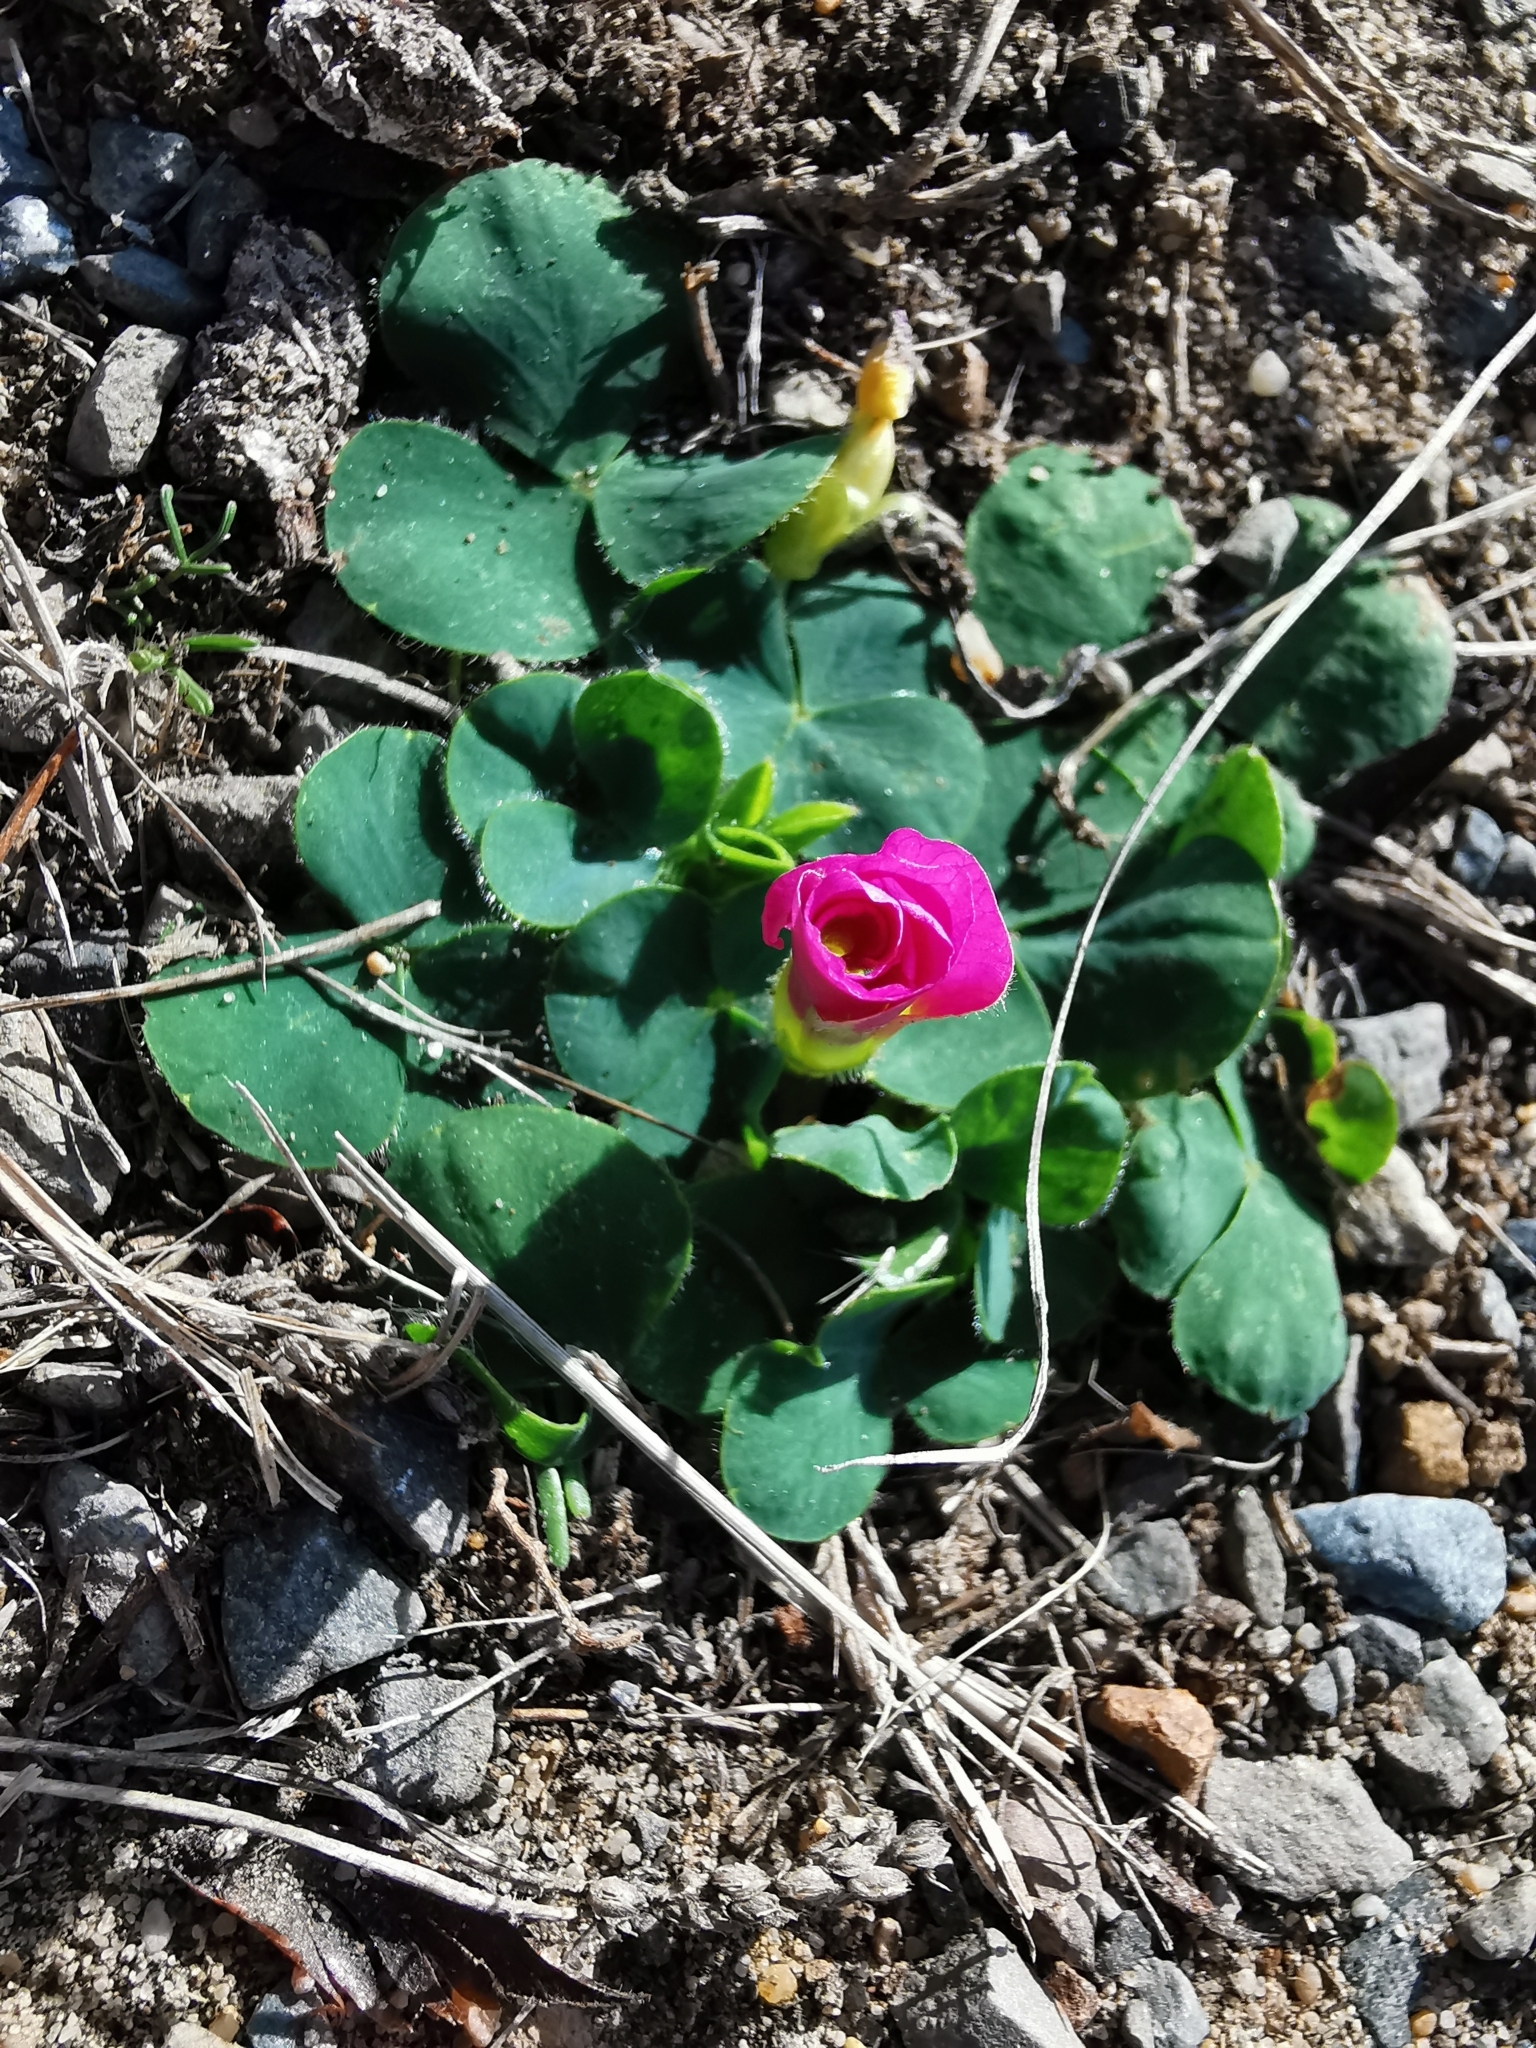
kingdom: Plantae
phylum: Tracheophyta
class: Magnoliopsida
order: Oxalidales
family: Oxalidaceae
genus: Oxalis
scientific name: Oxalis purpurea
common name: Purple woodsorrel
